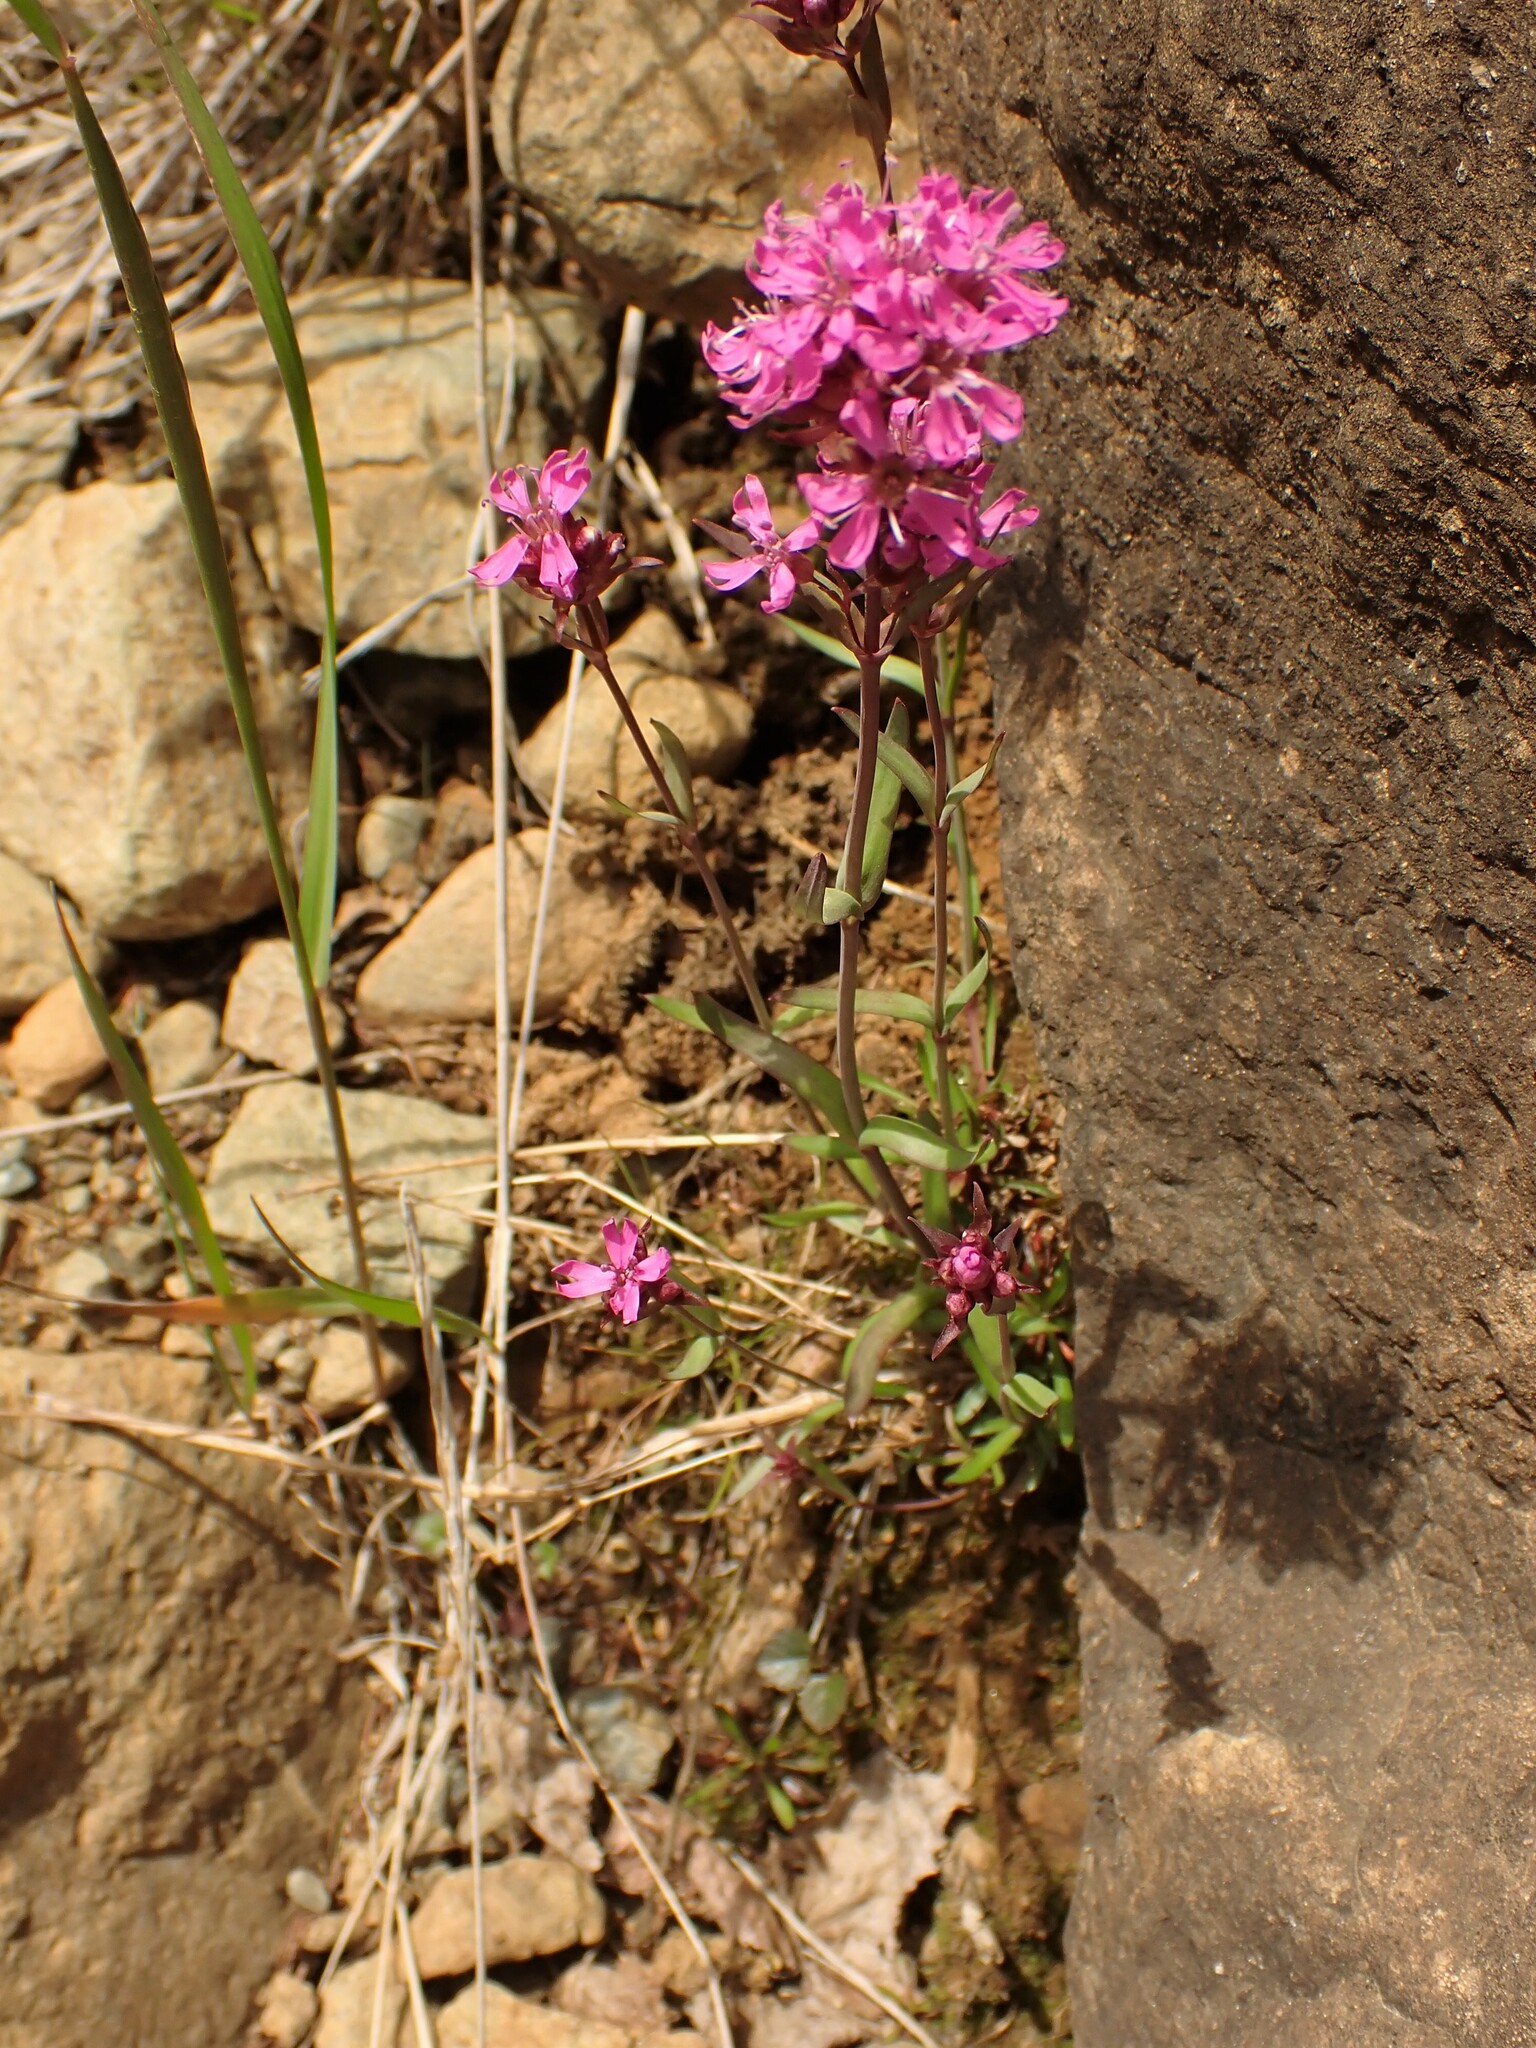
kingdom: Plantae
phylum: Tracheophyta
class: Magnoliopsida
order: Caryophyllales
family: Caryophyllaceae
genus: Viscaria
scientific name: Viscaria alpina
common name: Alpine campion
